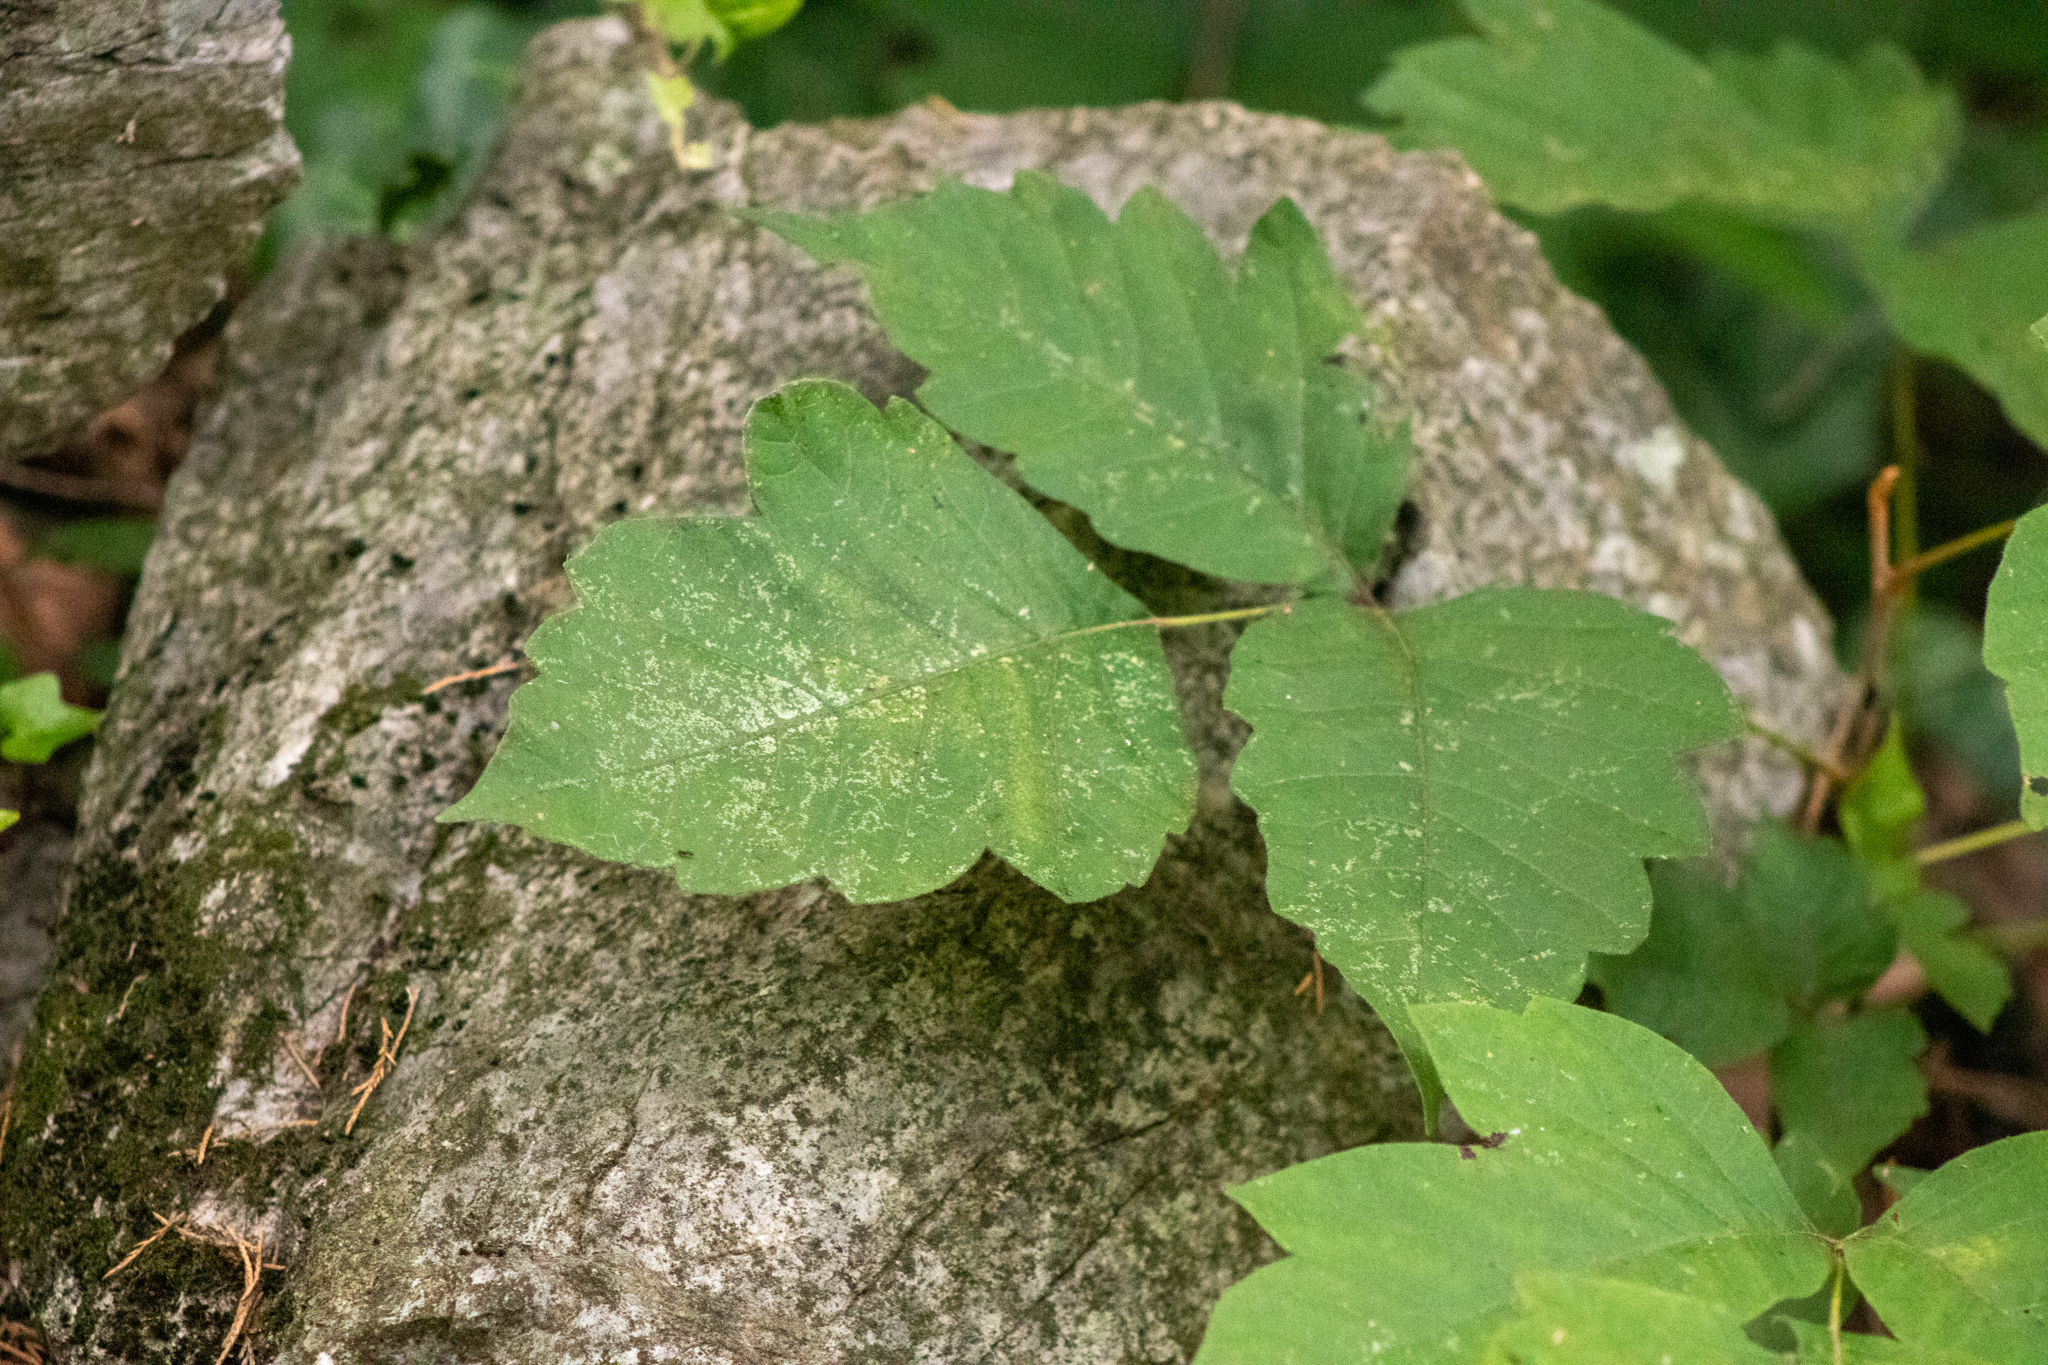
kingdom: Plantae
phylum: Tracheophyta
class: Magnoliopsida
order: Sapindales
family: Anacardiaceae
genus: Toxicodendron
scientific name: Toxicodendron radicans
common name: Poison ivy
